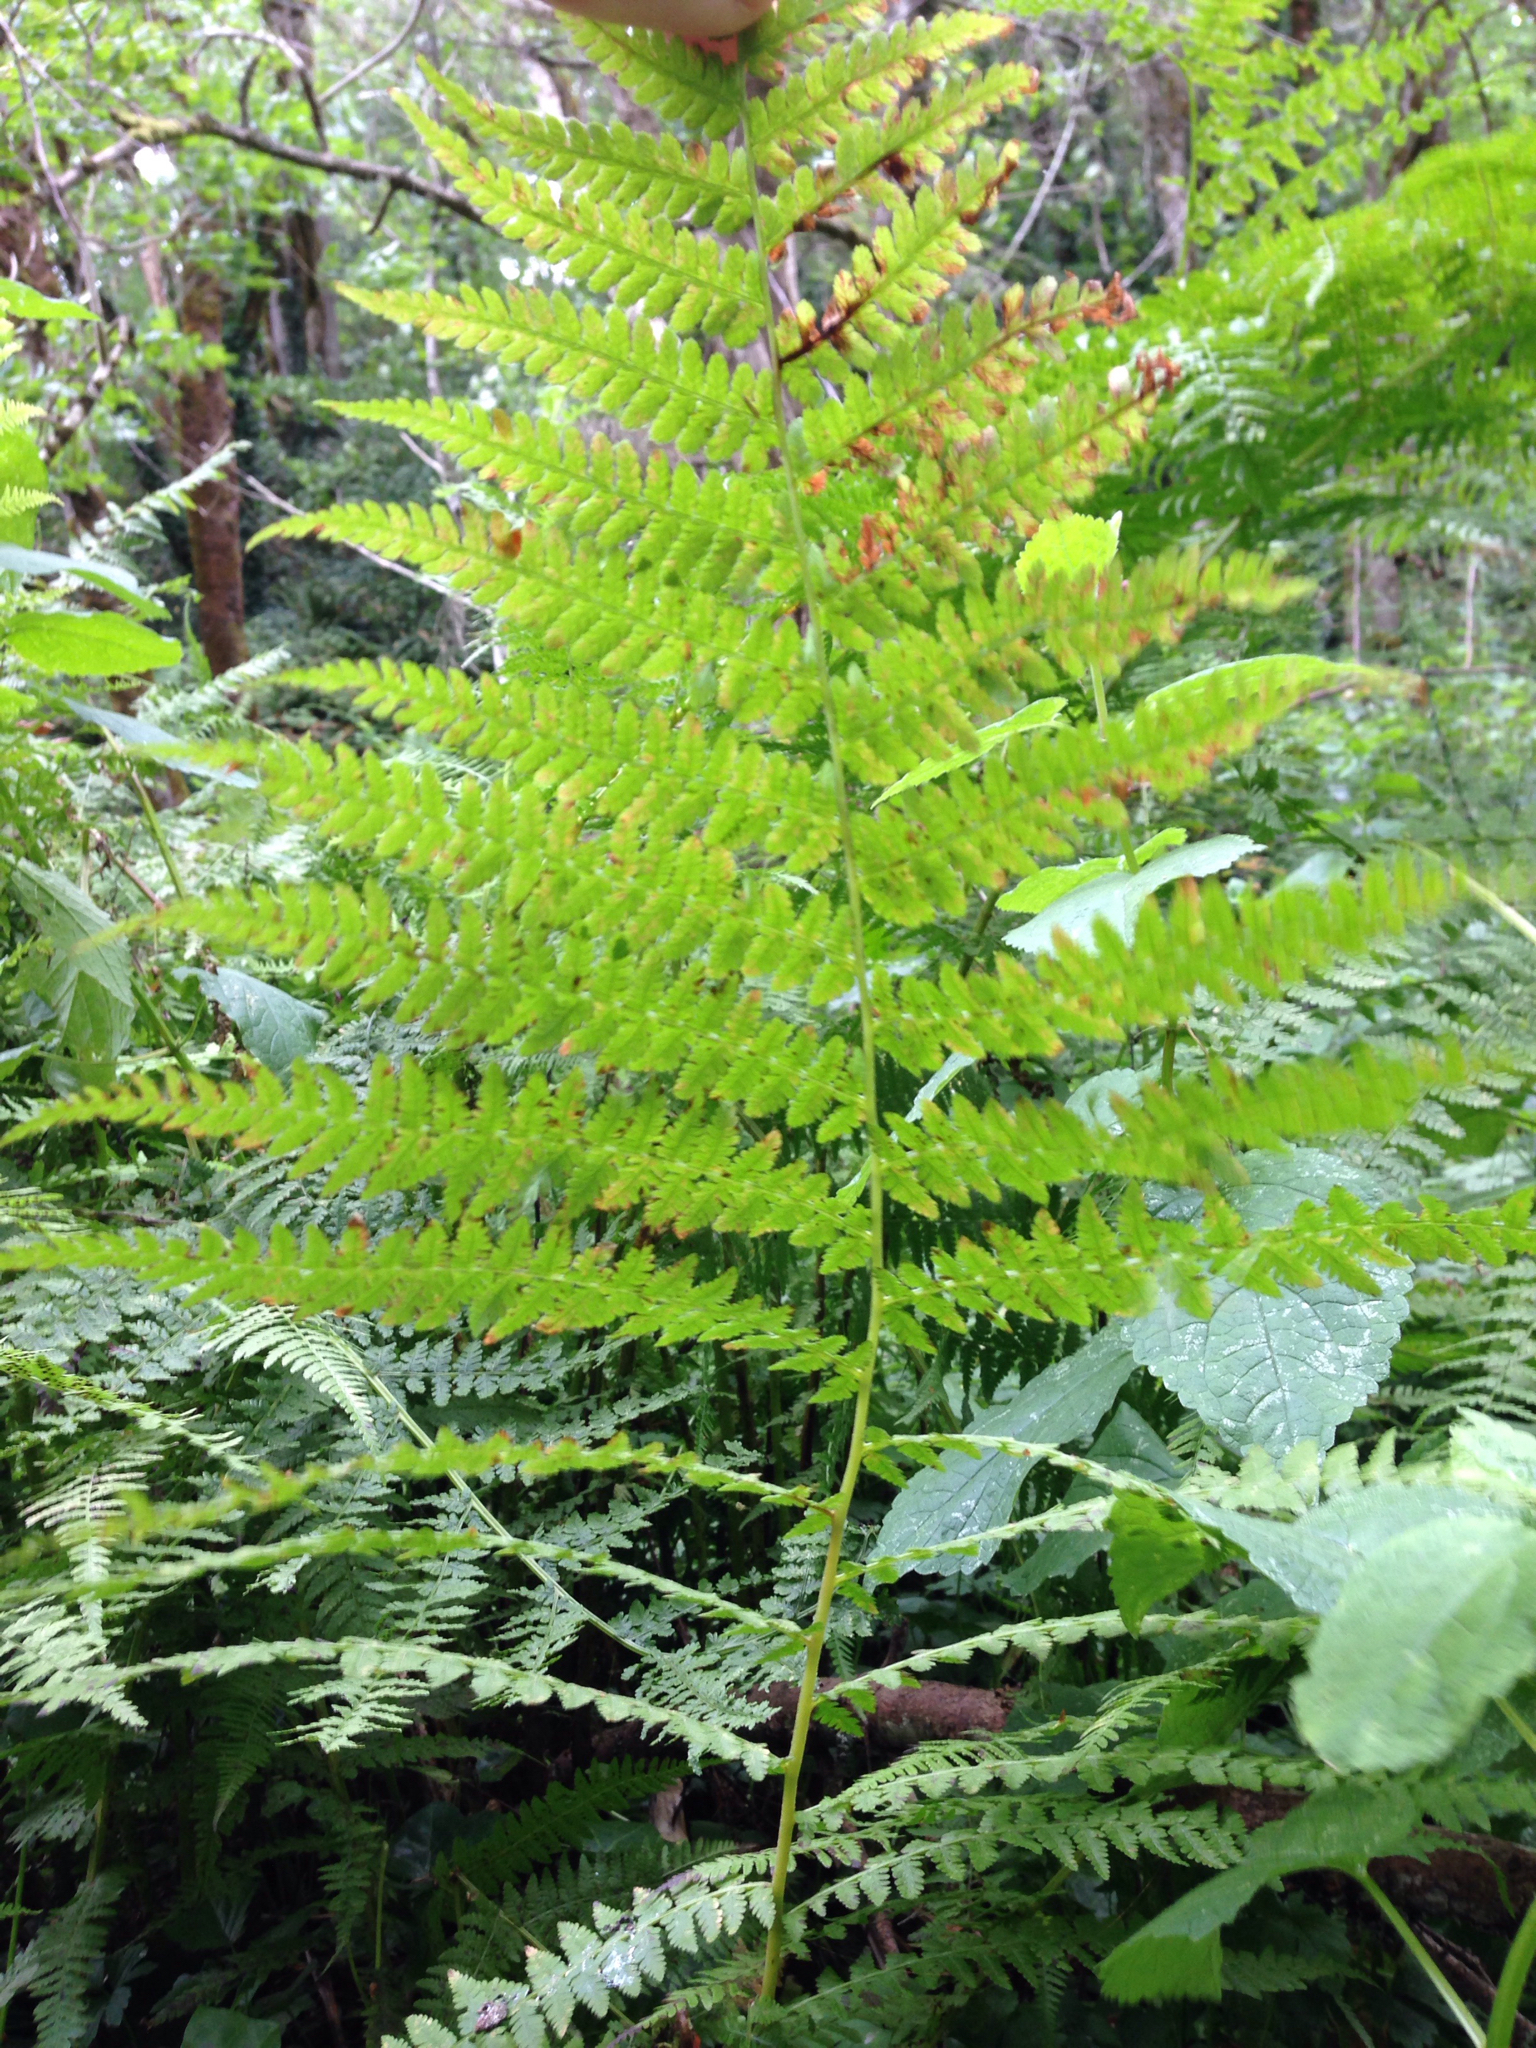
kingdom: Plantae
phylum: Tracheophyta
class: Polypodiopsida
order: Polypodiales
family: Athyriaceae
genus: Athyrium
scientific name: Athyrium cyclosorum
